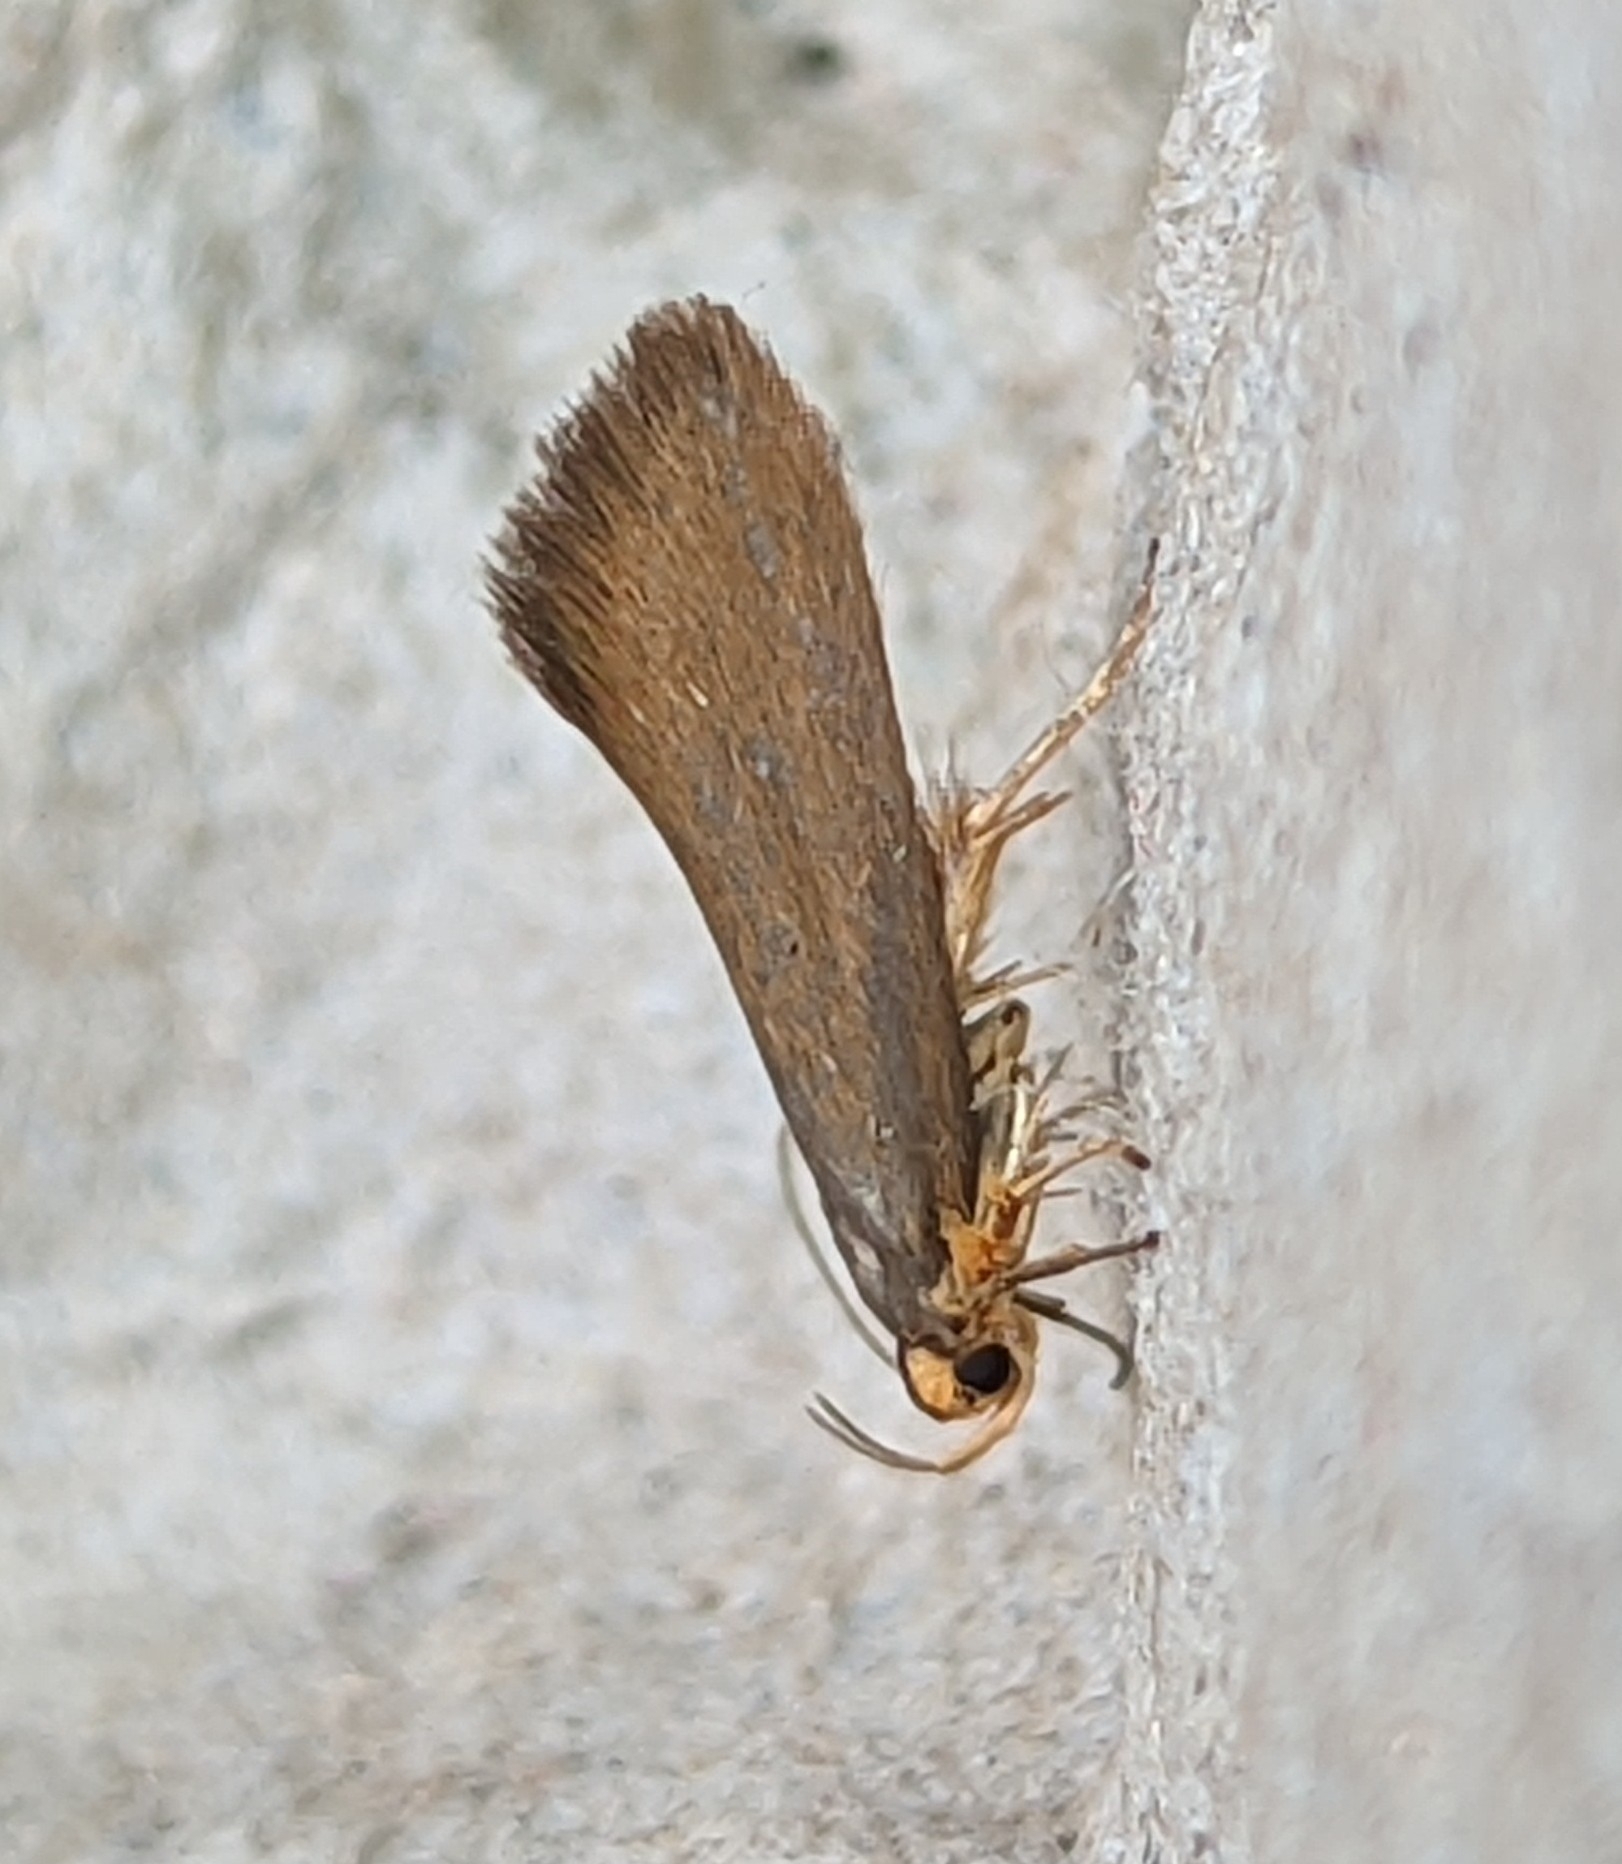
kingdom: Animalia
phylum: Arthropoda
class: Insecta
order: Lepidoptera
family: Oecophoridae
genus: Borkhausenia
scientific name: Borkhausenia Crassa unitella
